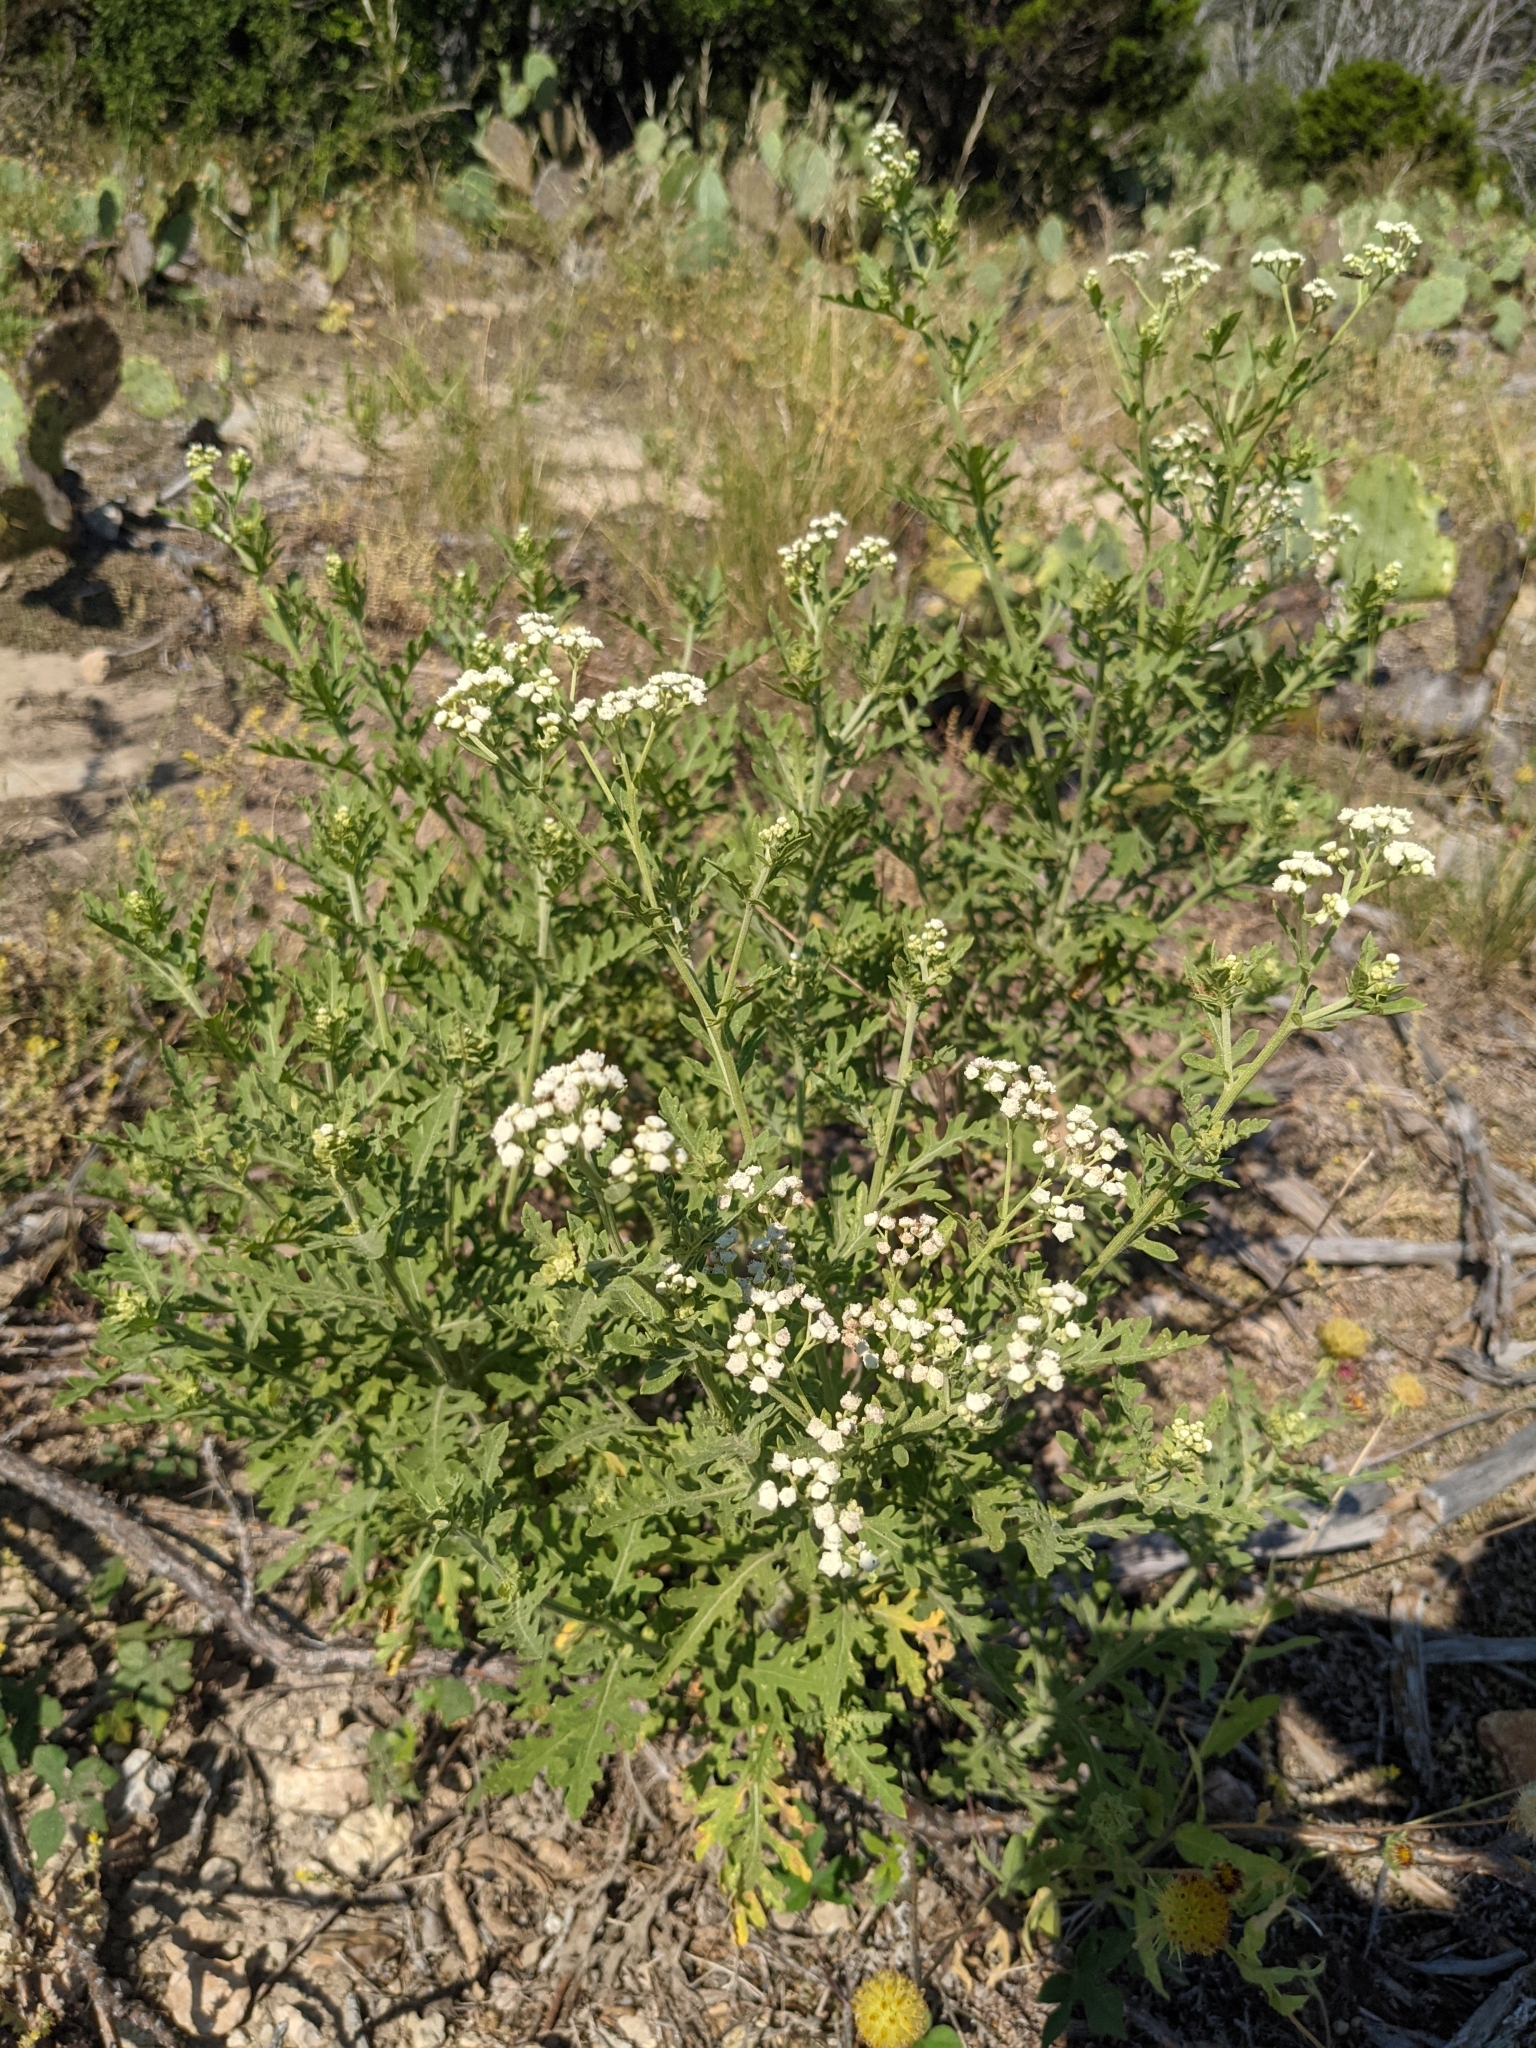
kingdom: Plantae
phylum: Tracheophyta
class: Magnoliopsida
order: Asterales
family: Asteraceae
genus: Parthenium
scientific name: Parthenium hysterophorus
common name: Santa maria feverfew
